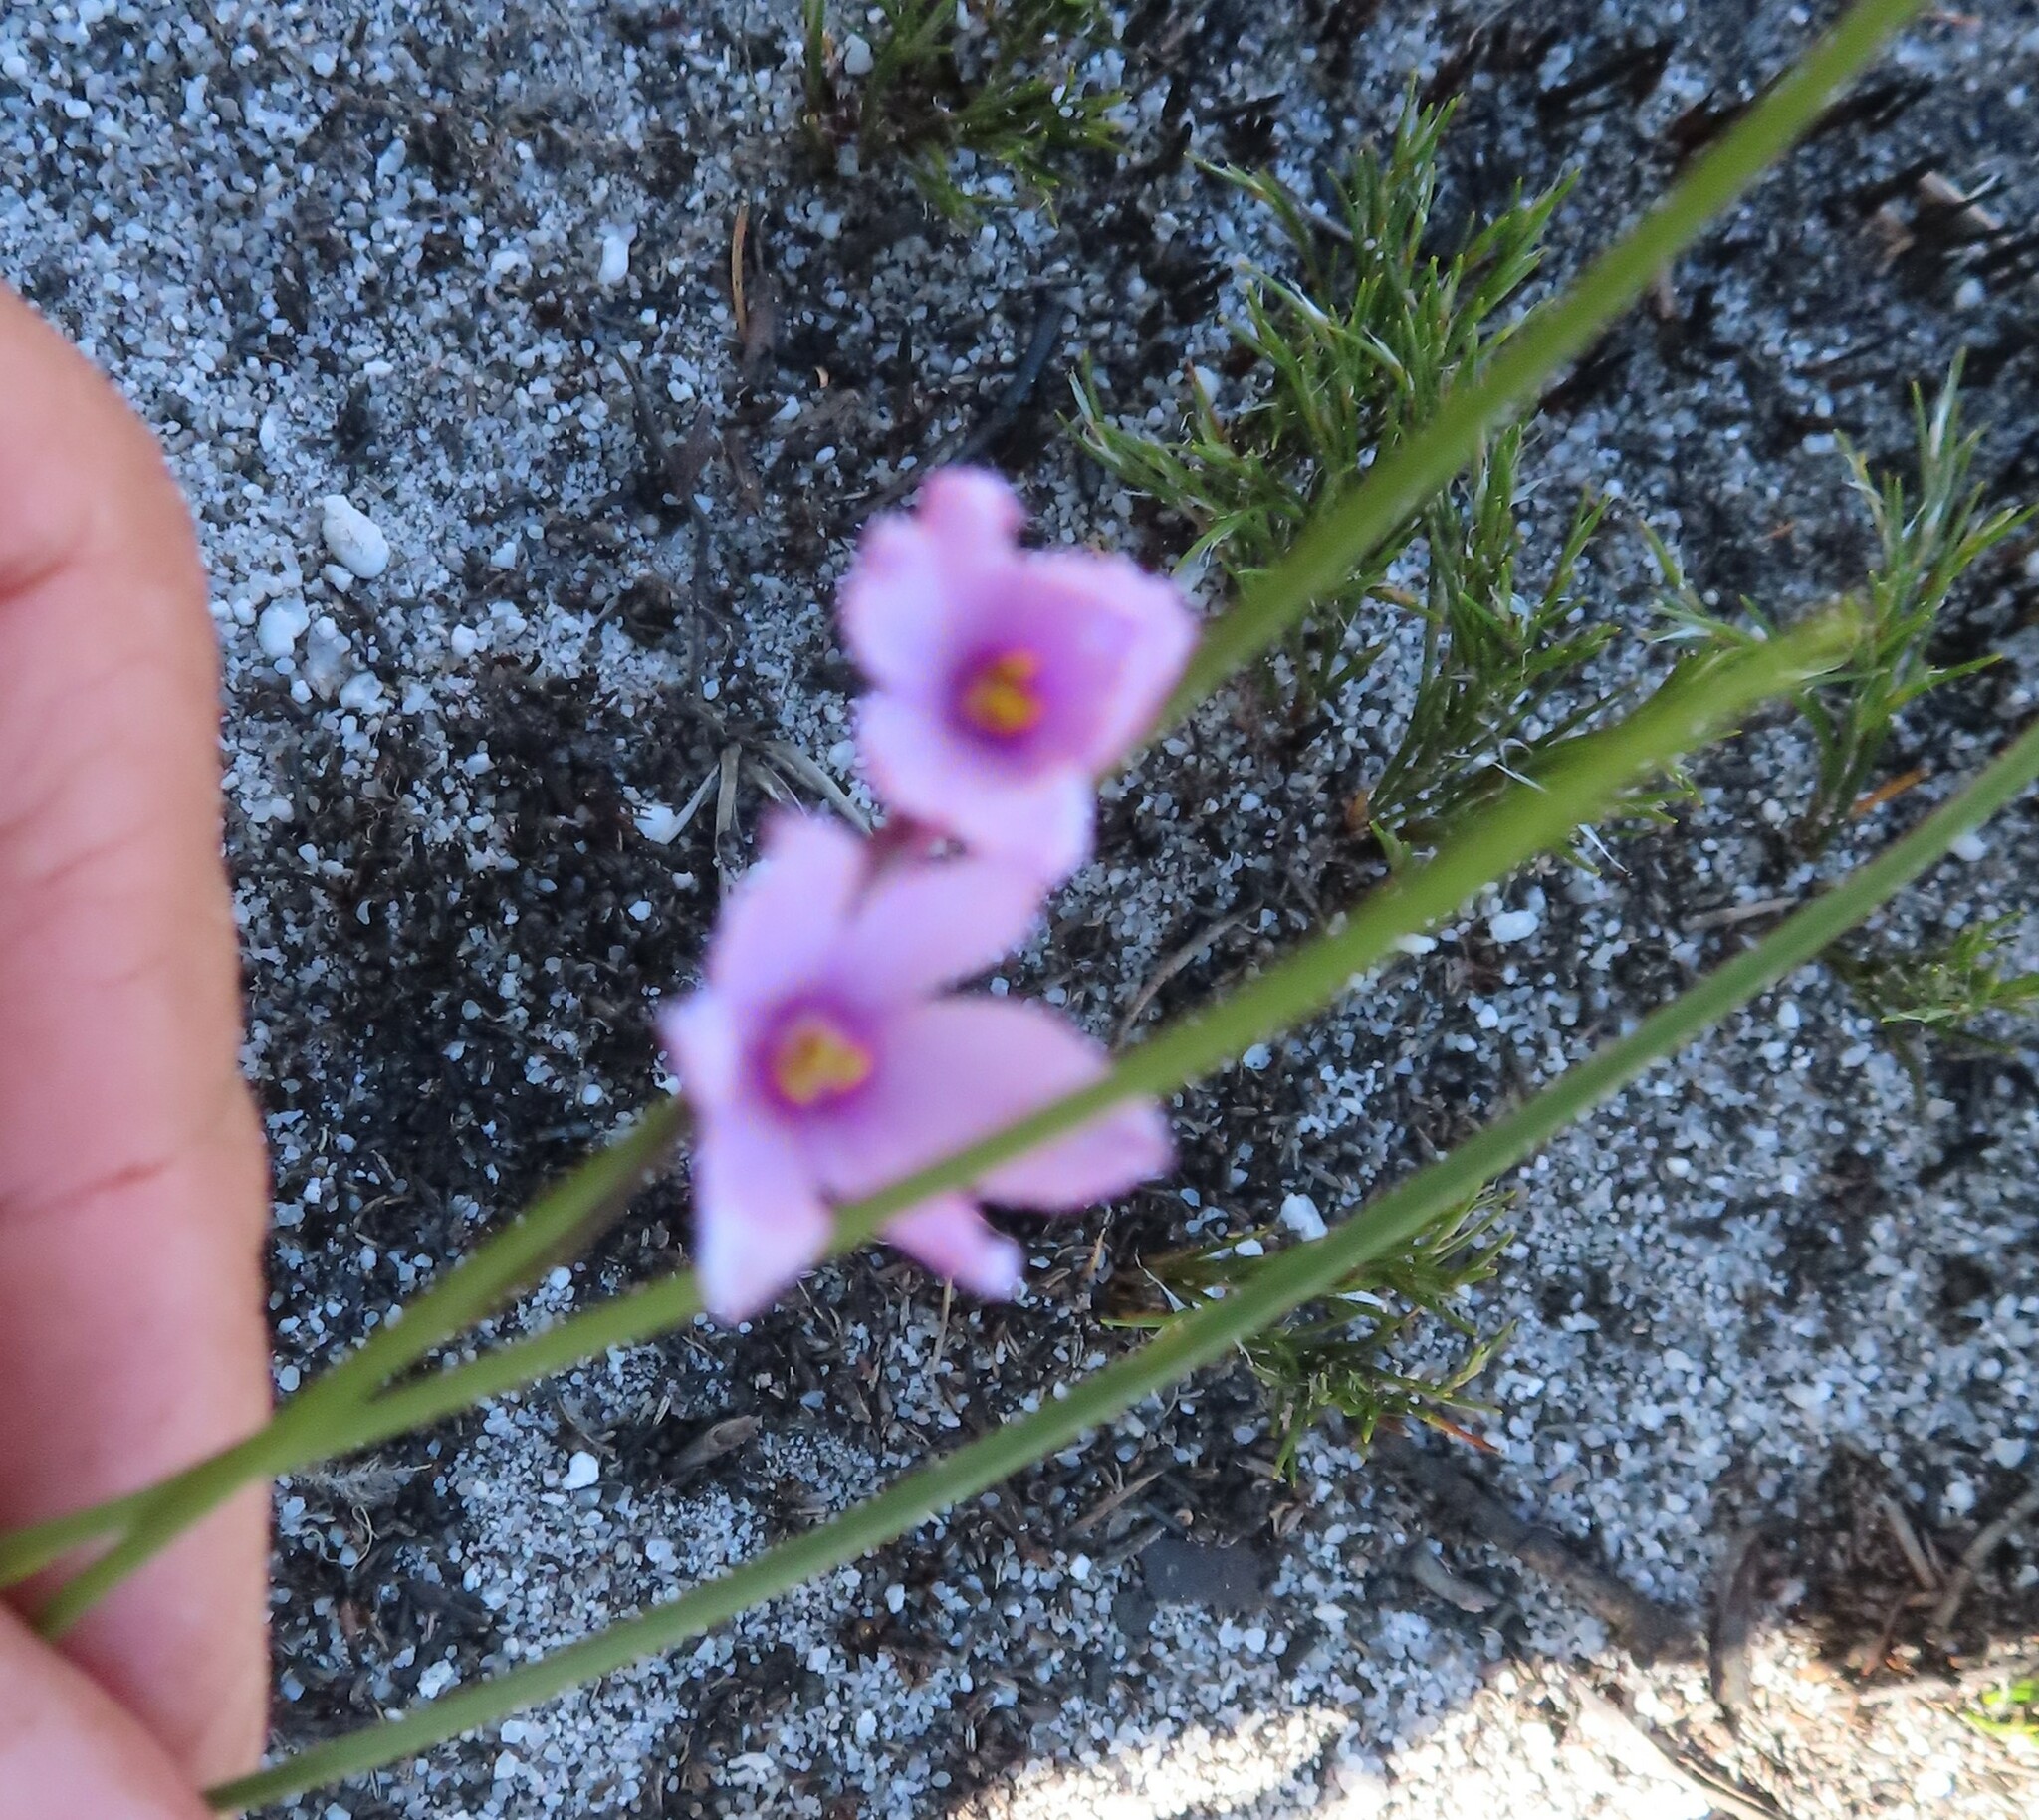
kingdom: Plantae
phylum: Tracheophyta
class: Liliopsida
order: Asparagales
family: Iridaceae
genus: Ixia
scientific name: Ixia micrandra
